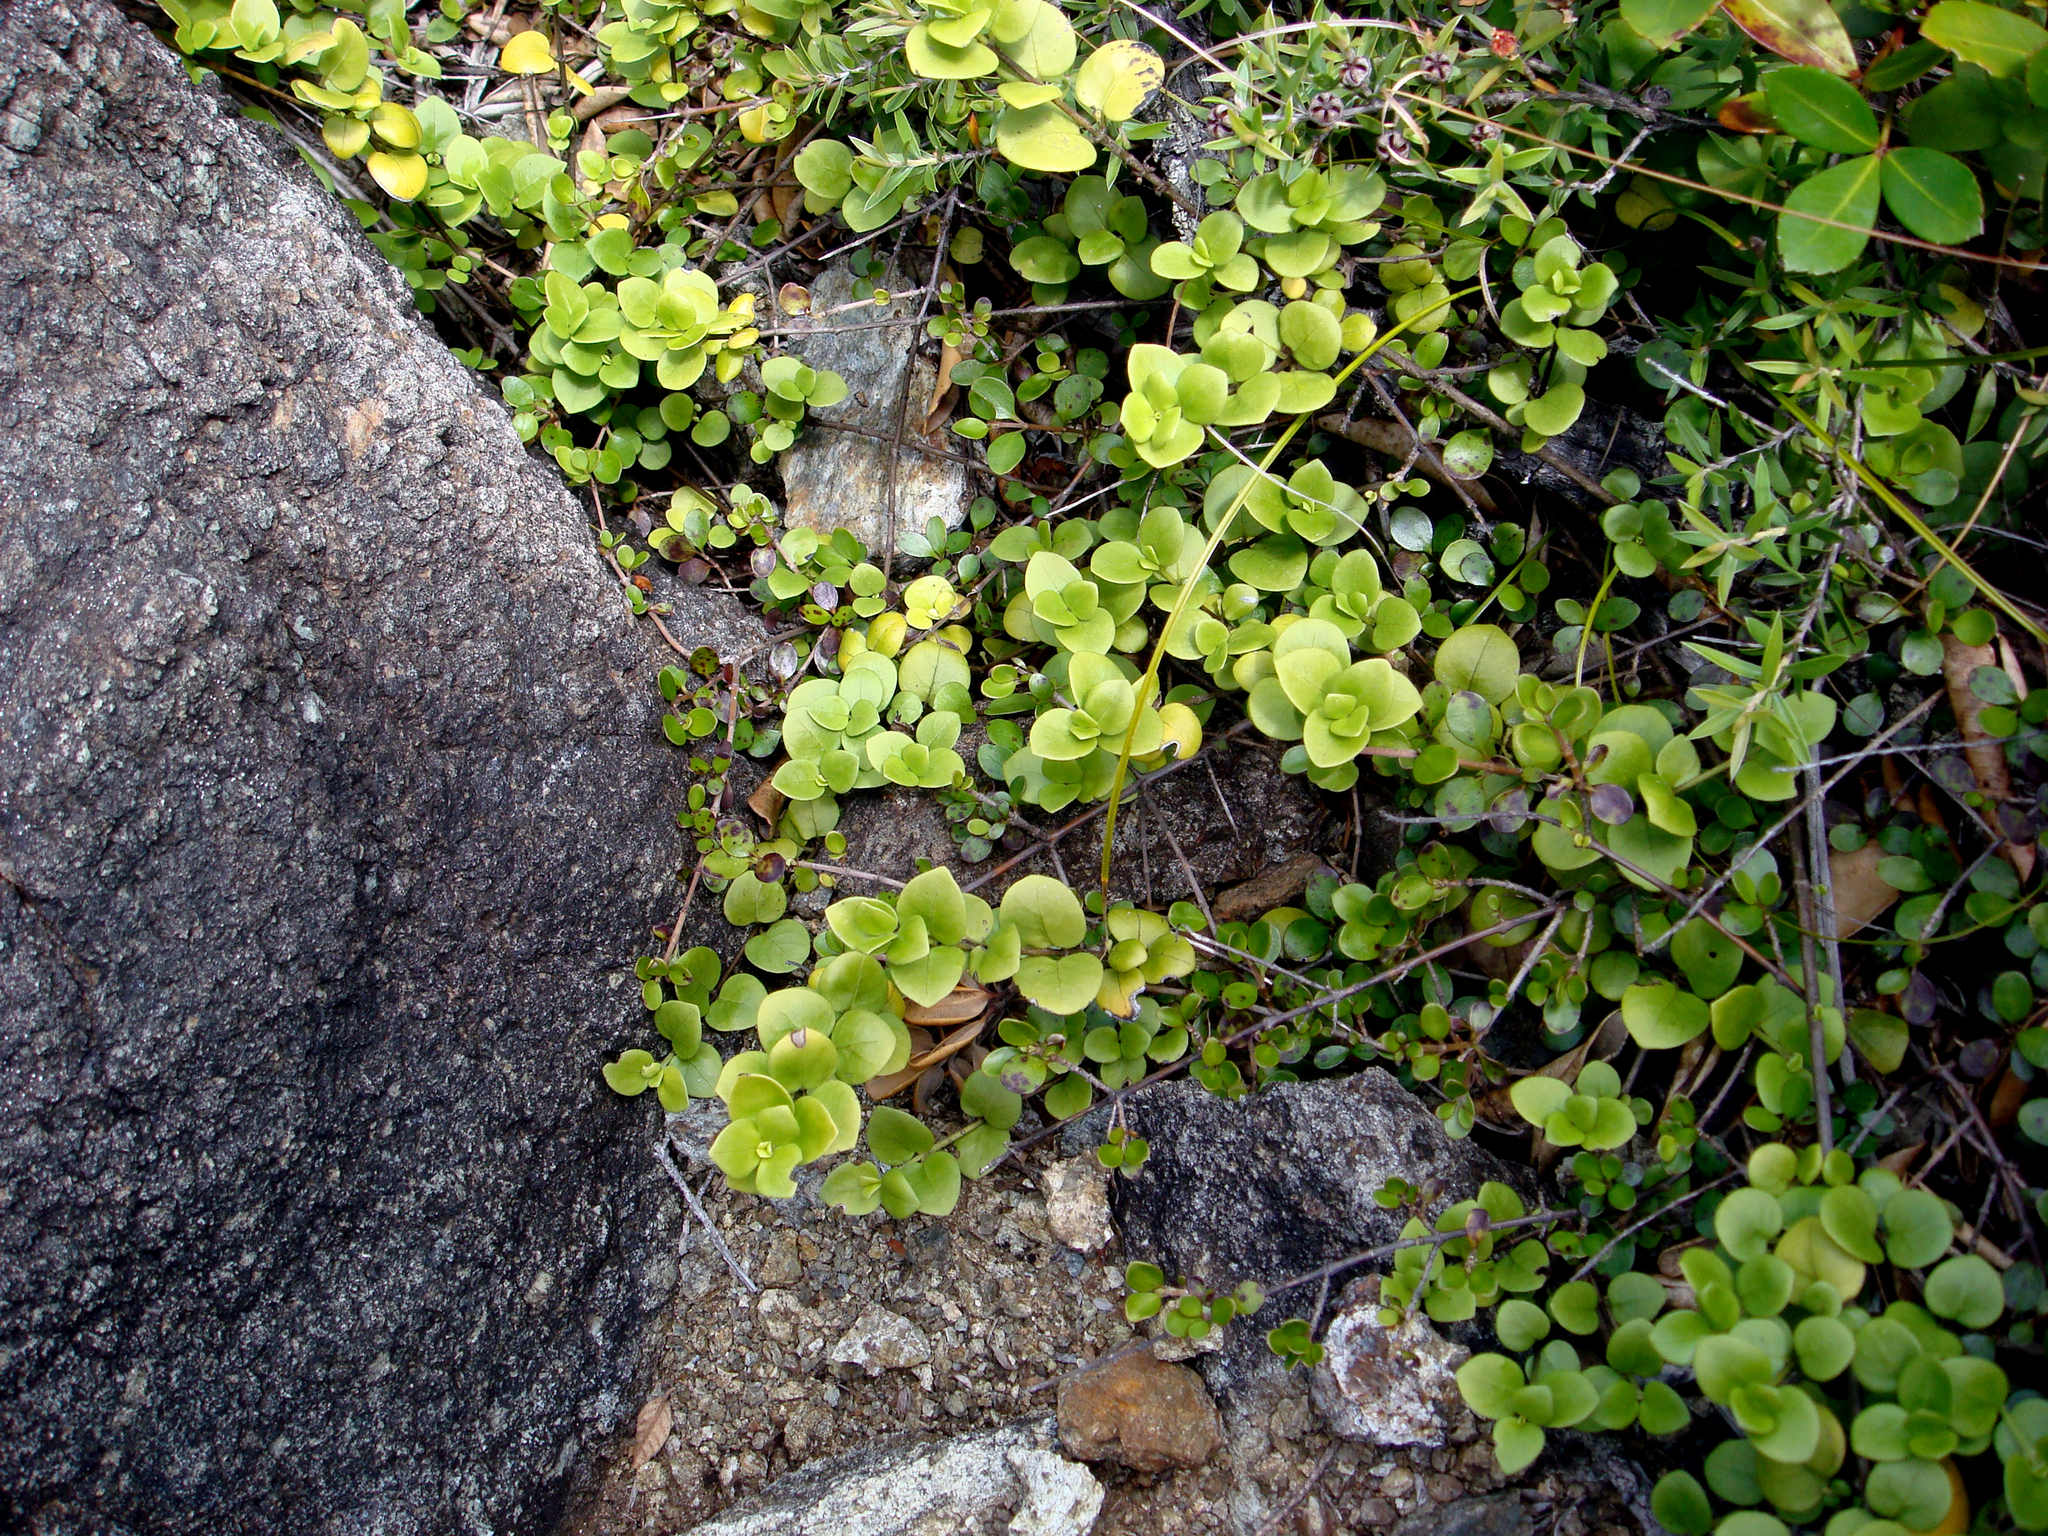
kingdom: Plantae
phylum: Tracheophyta
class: Magnoliopsida
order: Gentianales
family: Loganiaceae
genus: Geniostoma
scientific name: Geniostoma ligustrifolium
